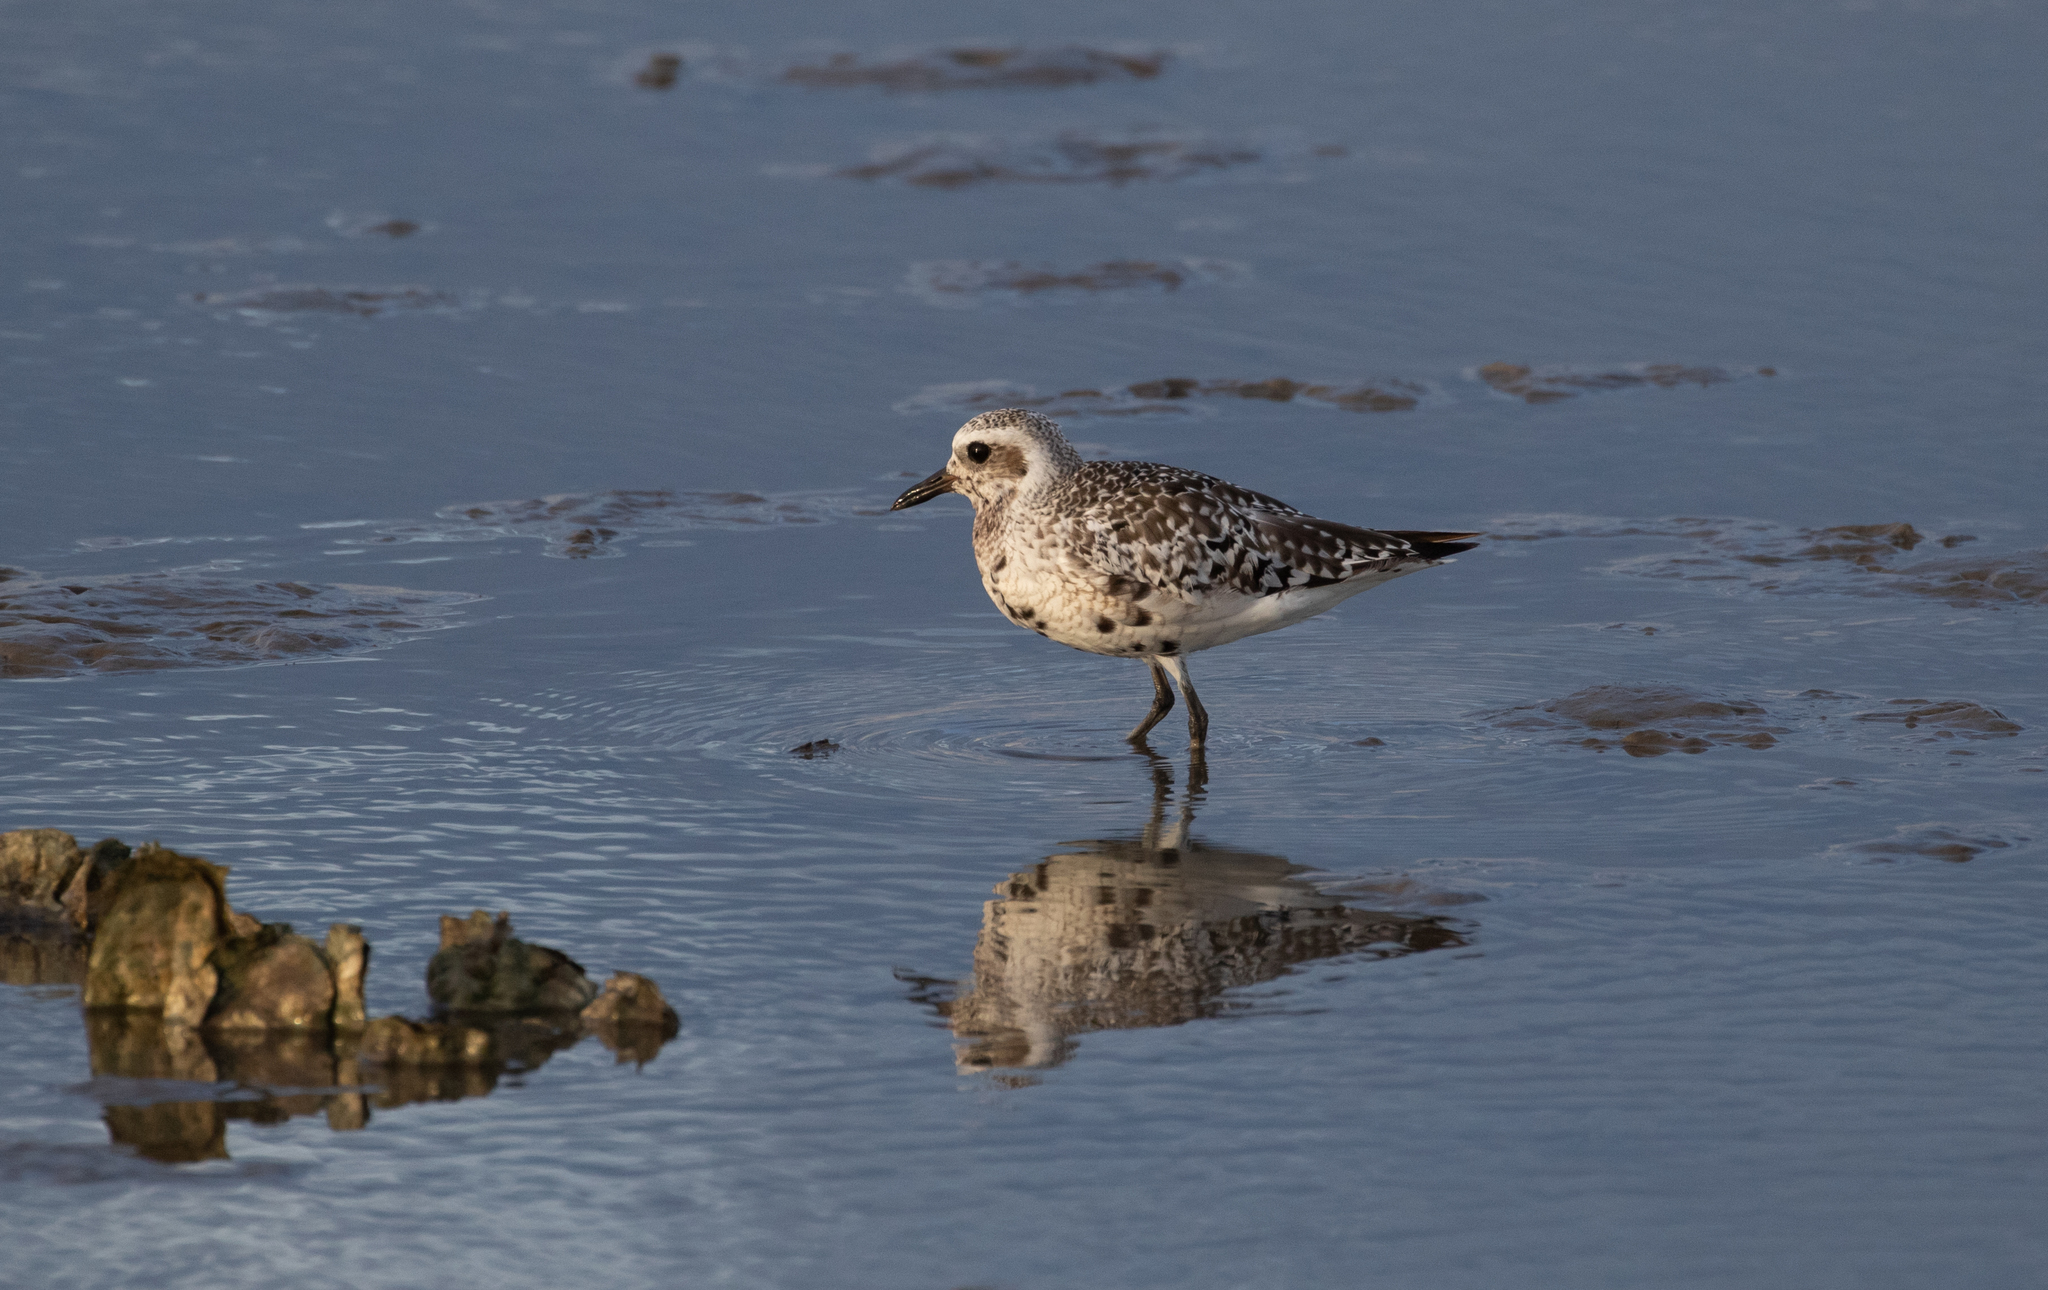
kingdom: Animalia
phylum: Chordata
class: Aves
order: Charadriiformes
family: Charadriidae
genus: Pluvialis
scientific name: Pluvialis squatarola
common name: Grey plover
